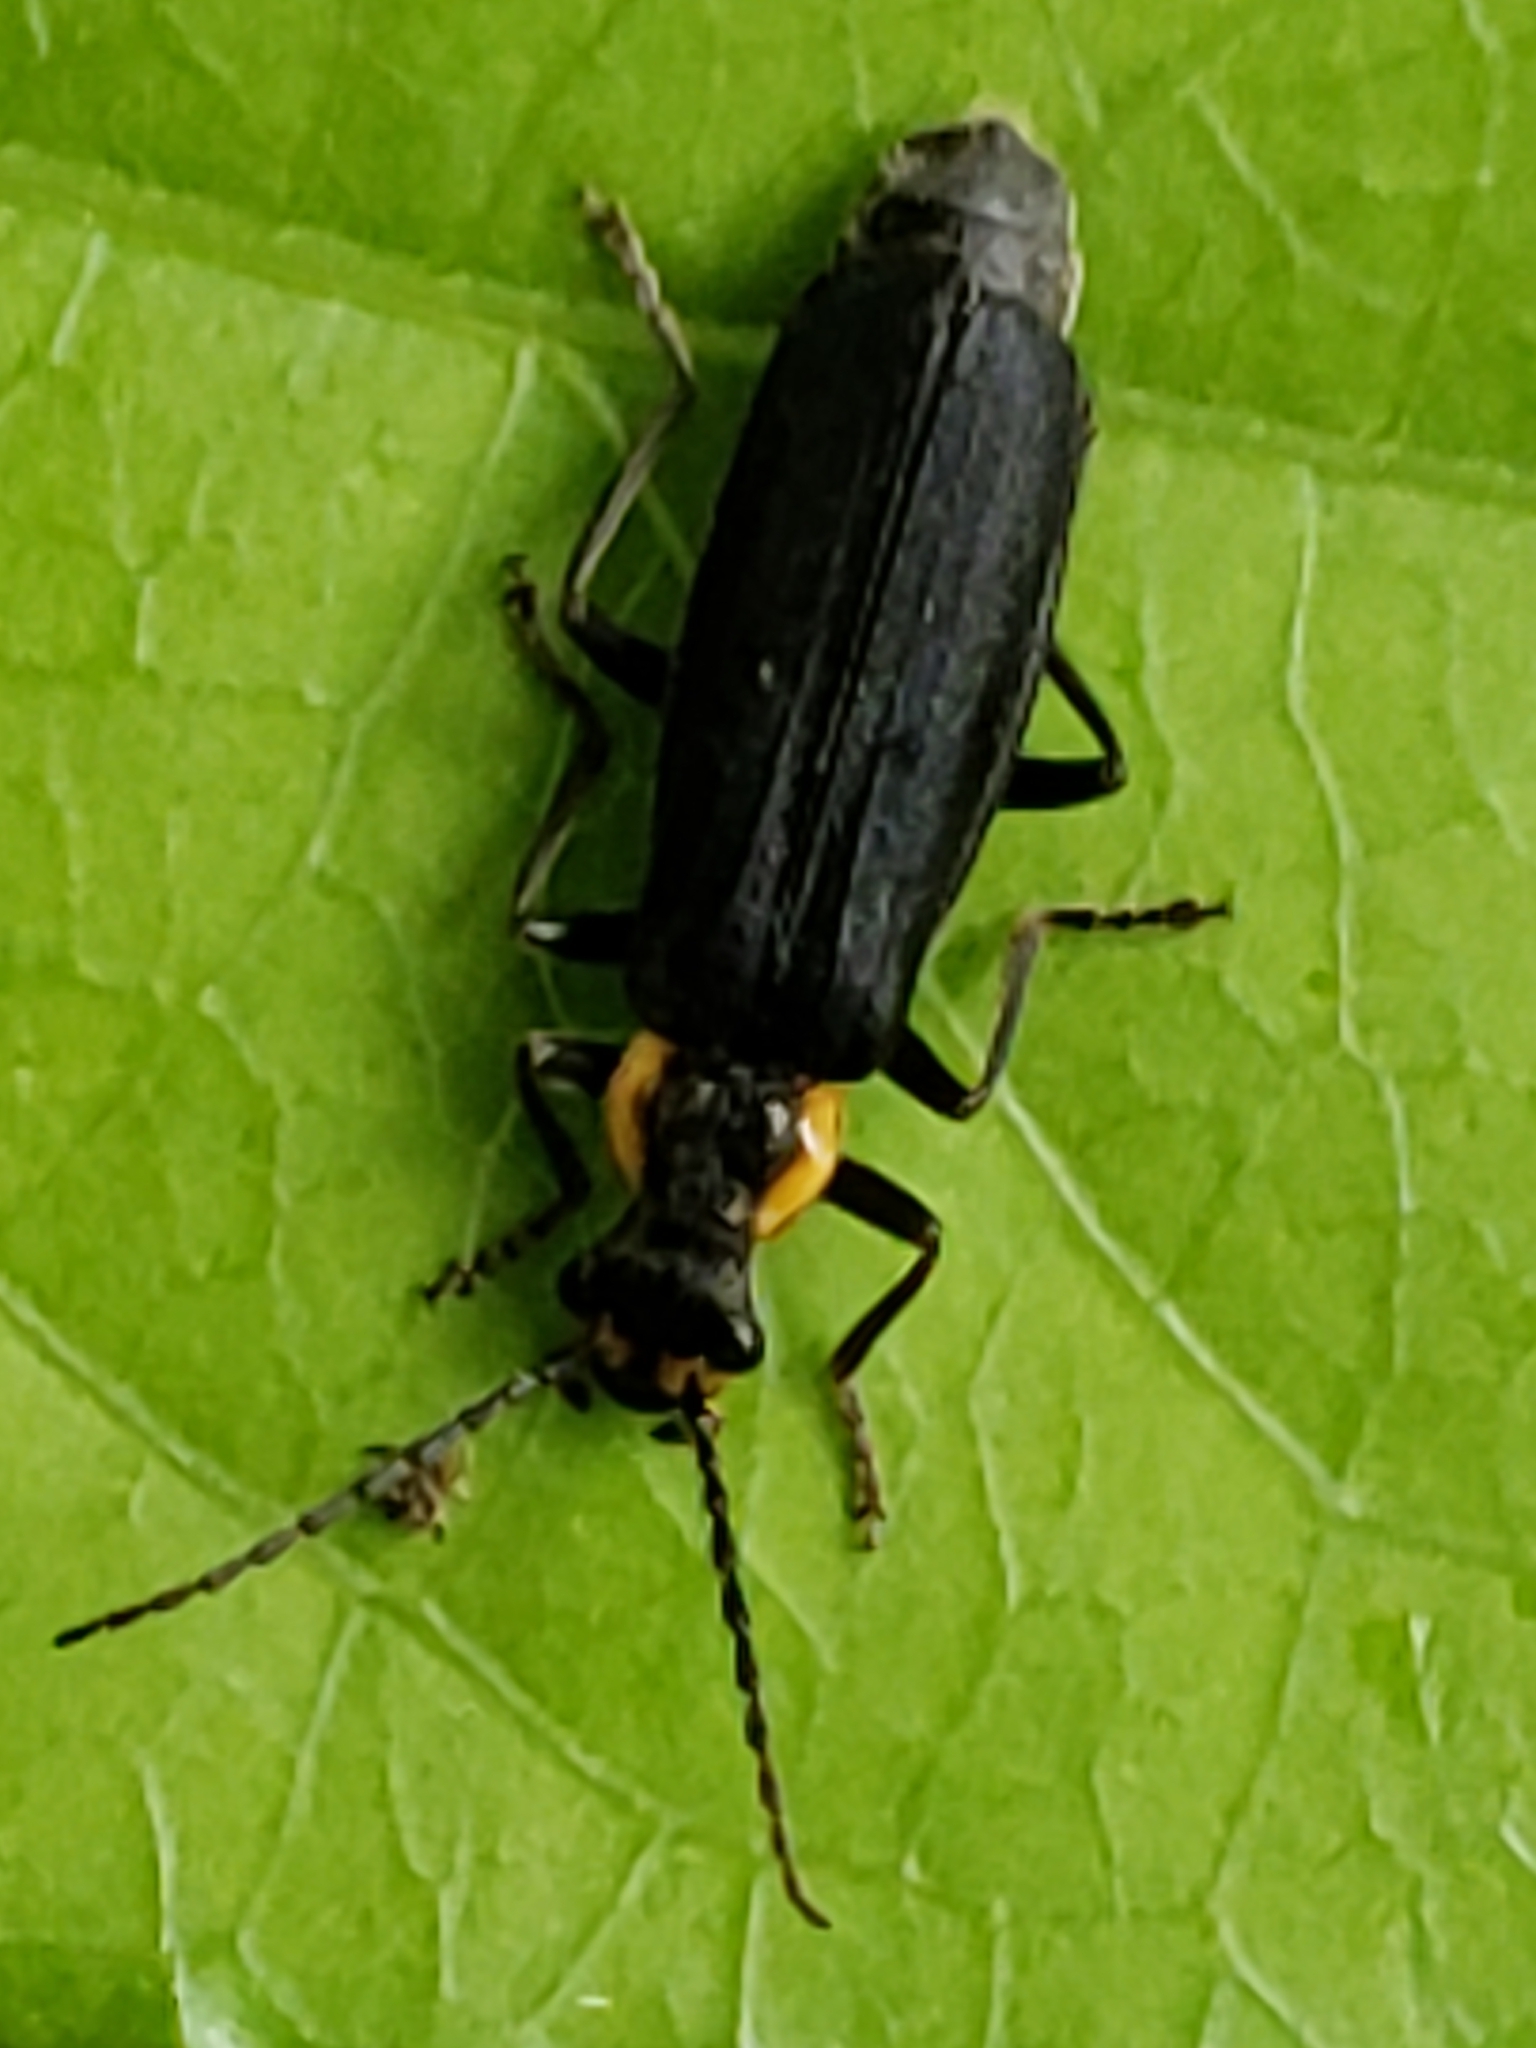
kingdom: Animalia
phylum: Arthropoda
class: Insecta
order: Coleoptera
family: Cantharidae
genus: Podabrus
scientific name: Podabrus rugosulus
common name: Wrinkled soldier beetle
